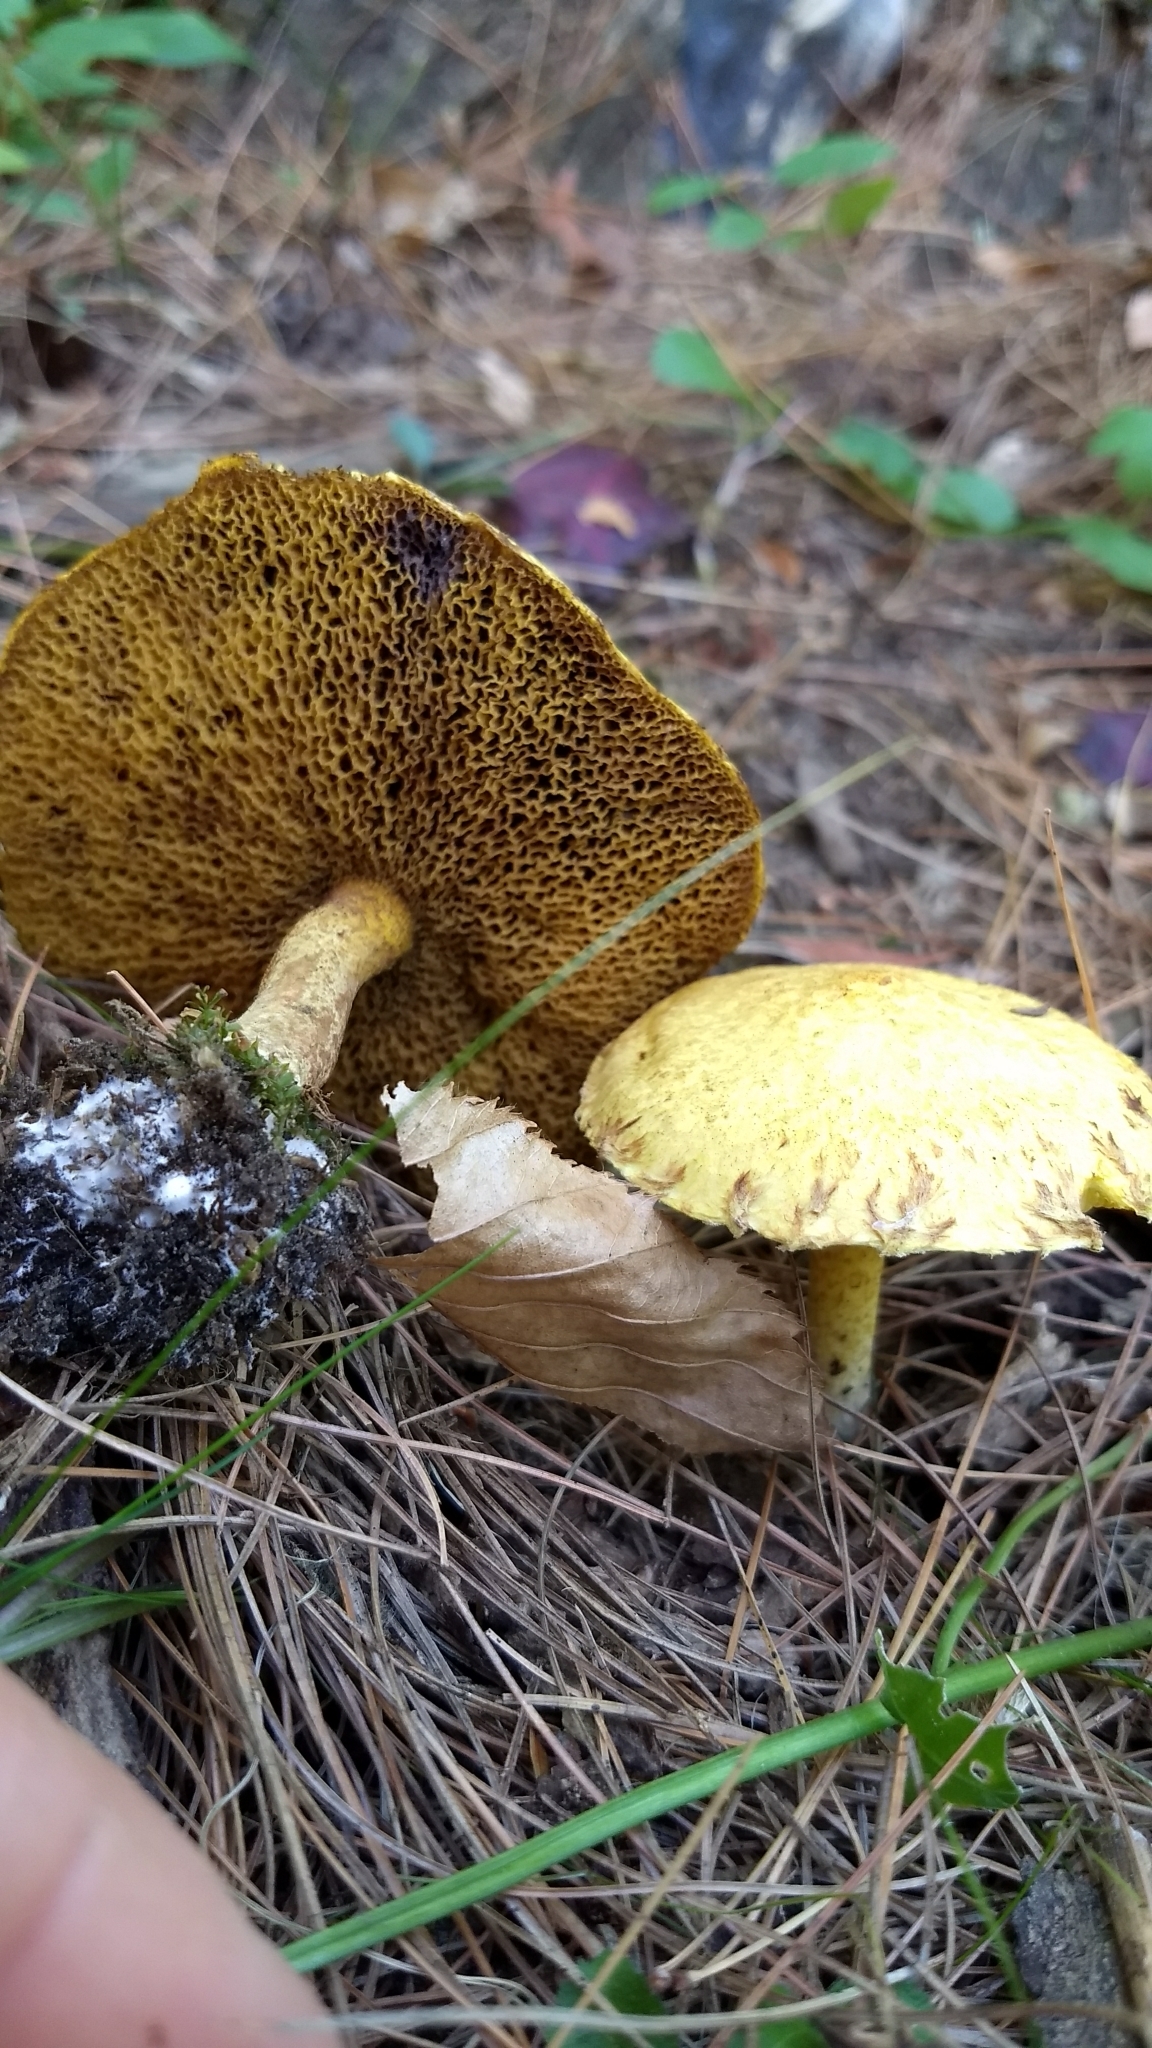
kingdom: Fungi
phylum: Basidiomycota
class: Agaricomycetes
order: Boletales
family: Suillaceae
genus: Suillus
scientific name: Suillus americanus
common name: Chicken fat mushroom
